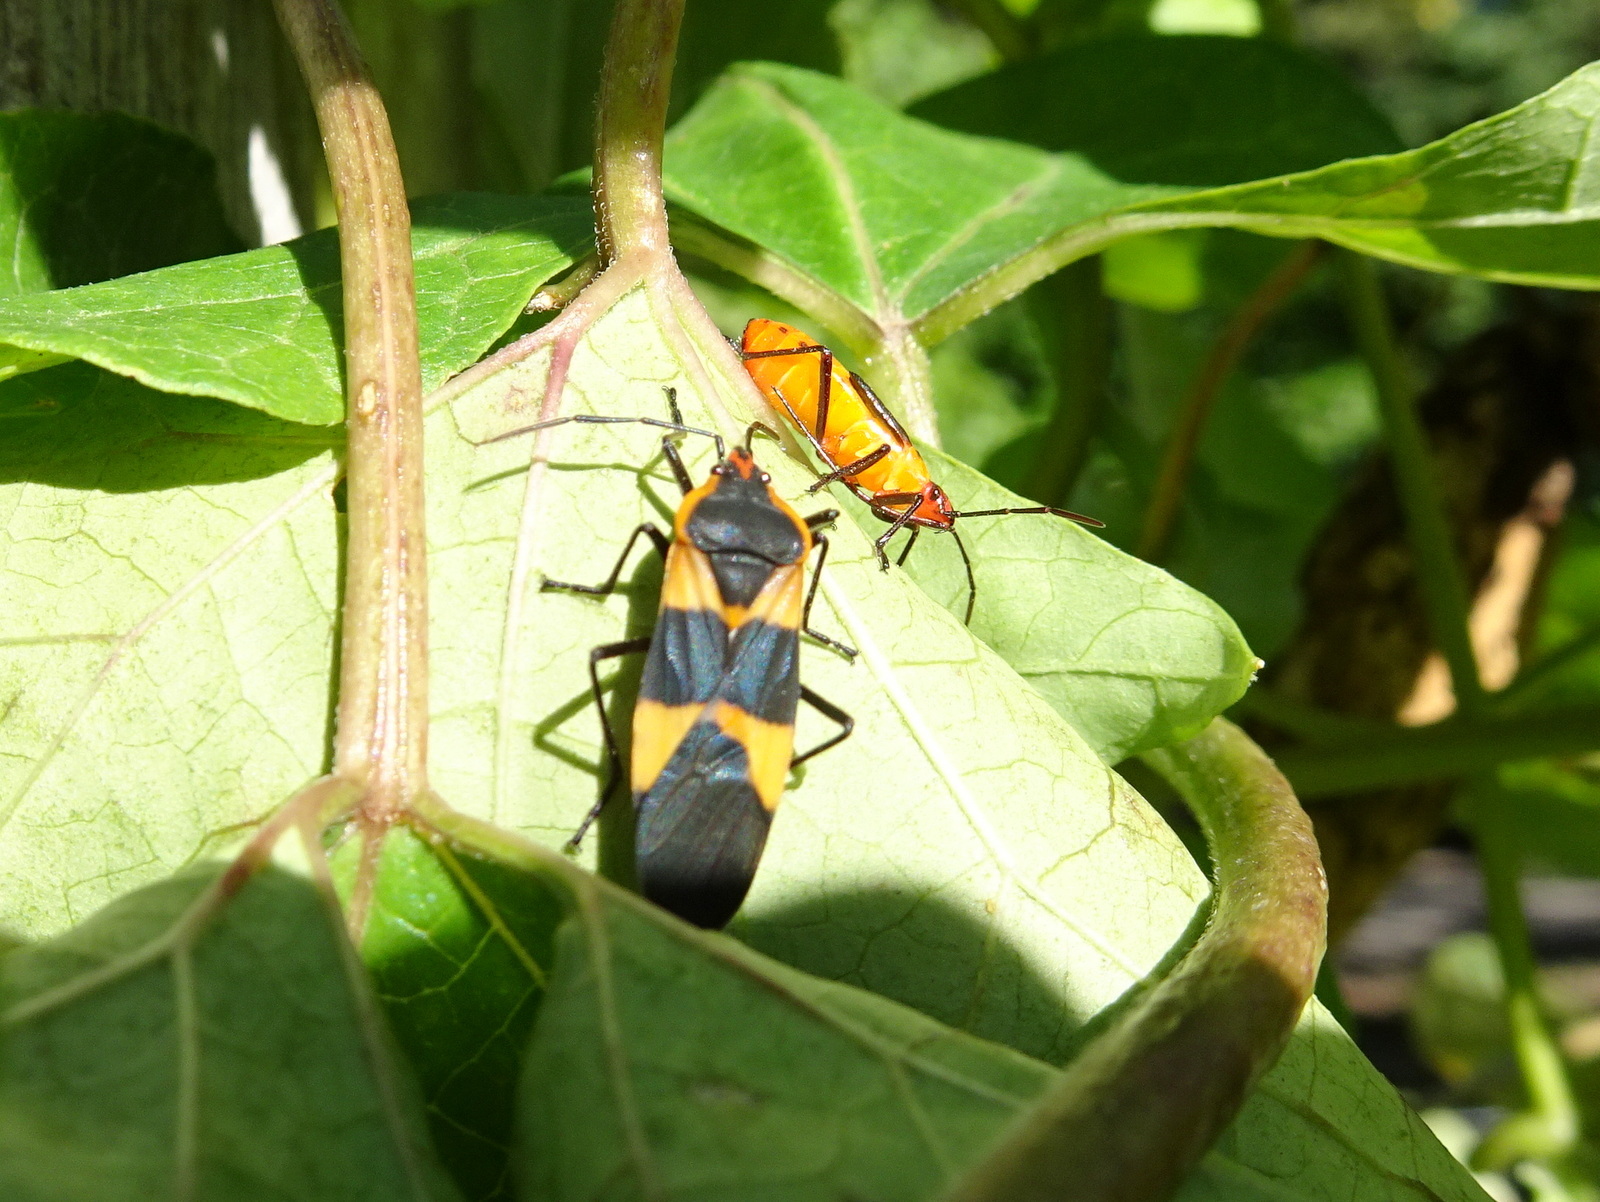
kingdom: Animalia
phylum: Arthropoda
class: Insecta
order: Hemiptera
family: Lygaeidae
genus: Oncopeltus
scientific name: Oncopeltus fasciatus
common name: Large milkweed bug
